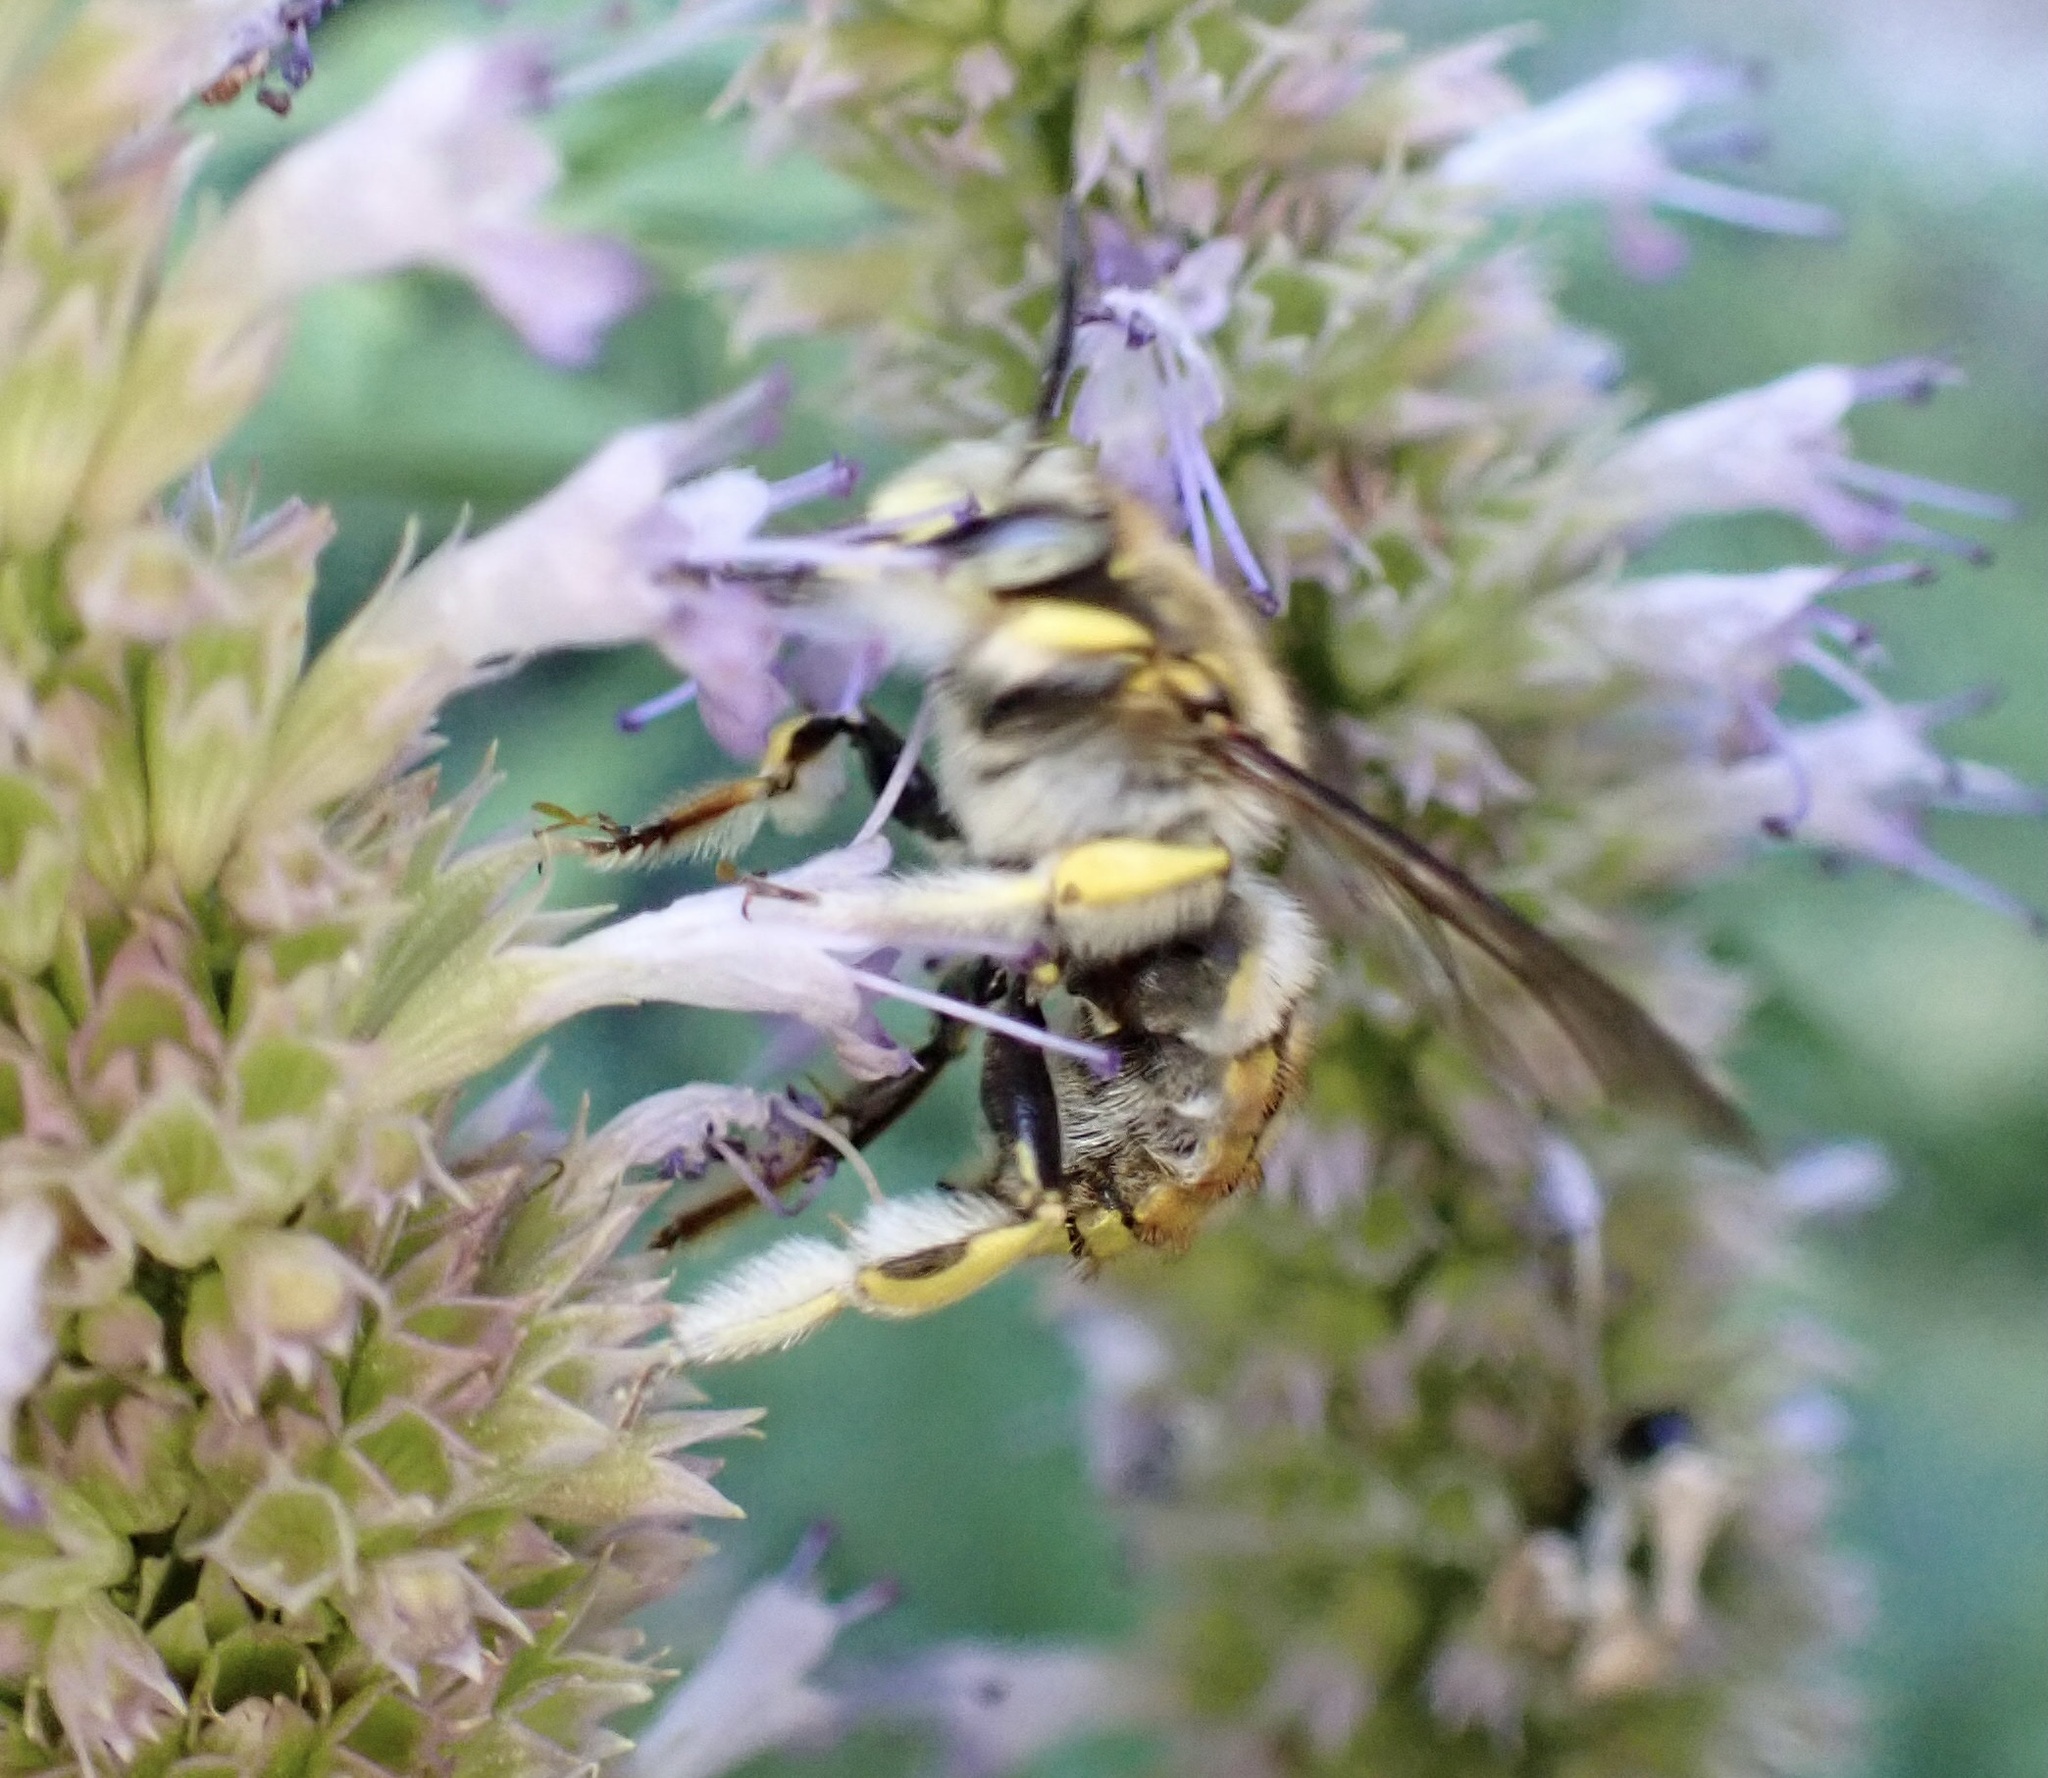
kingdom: Animalia
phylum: Arthropoda
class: Insecta
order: Hymenoptera
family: Megachilidae
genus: Anthidium
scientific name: Anthidium manicatum
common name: Wool carder bee
